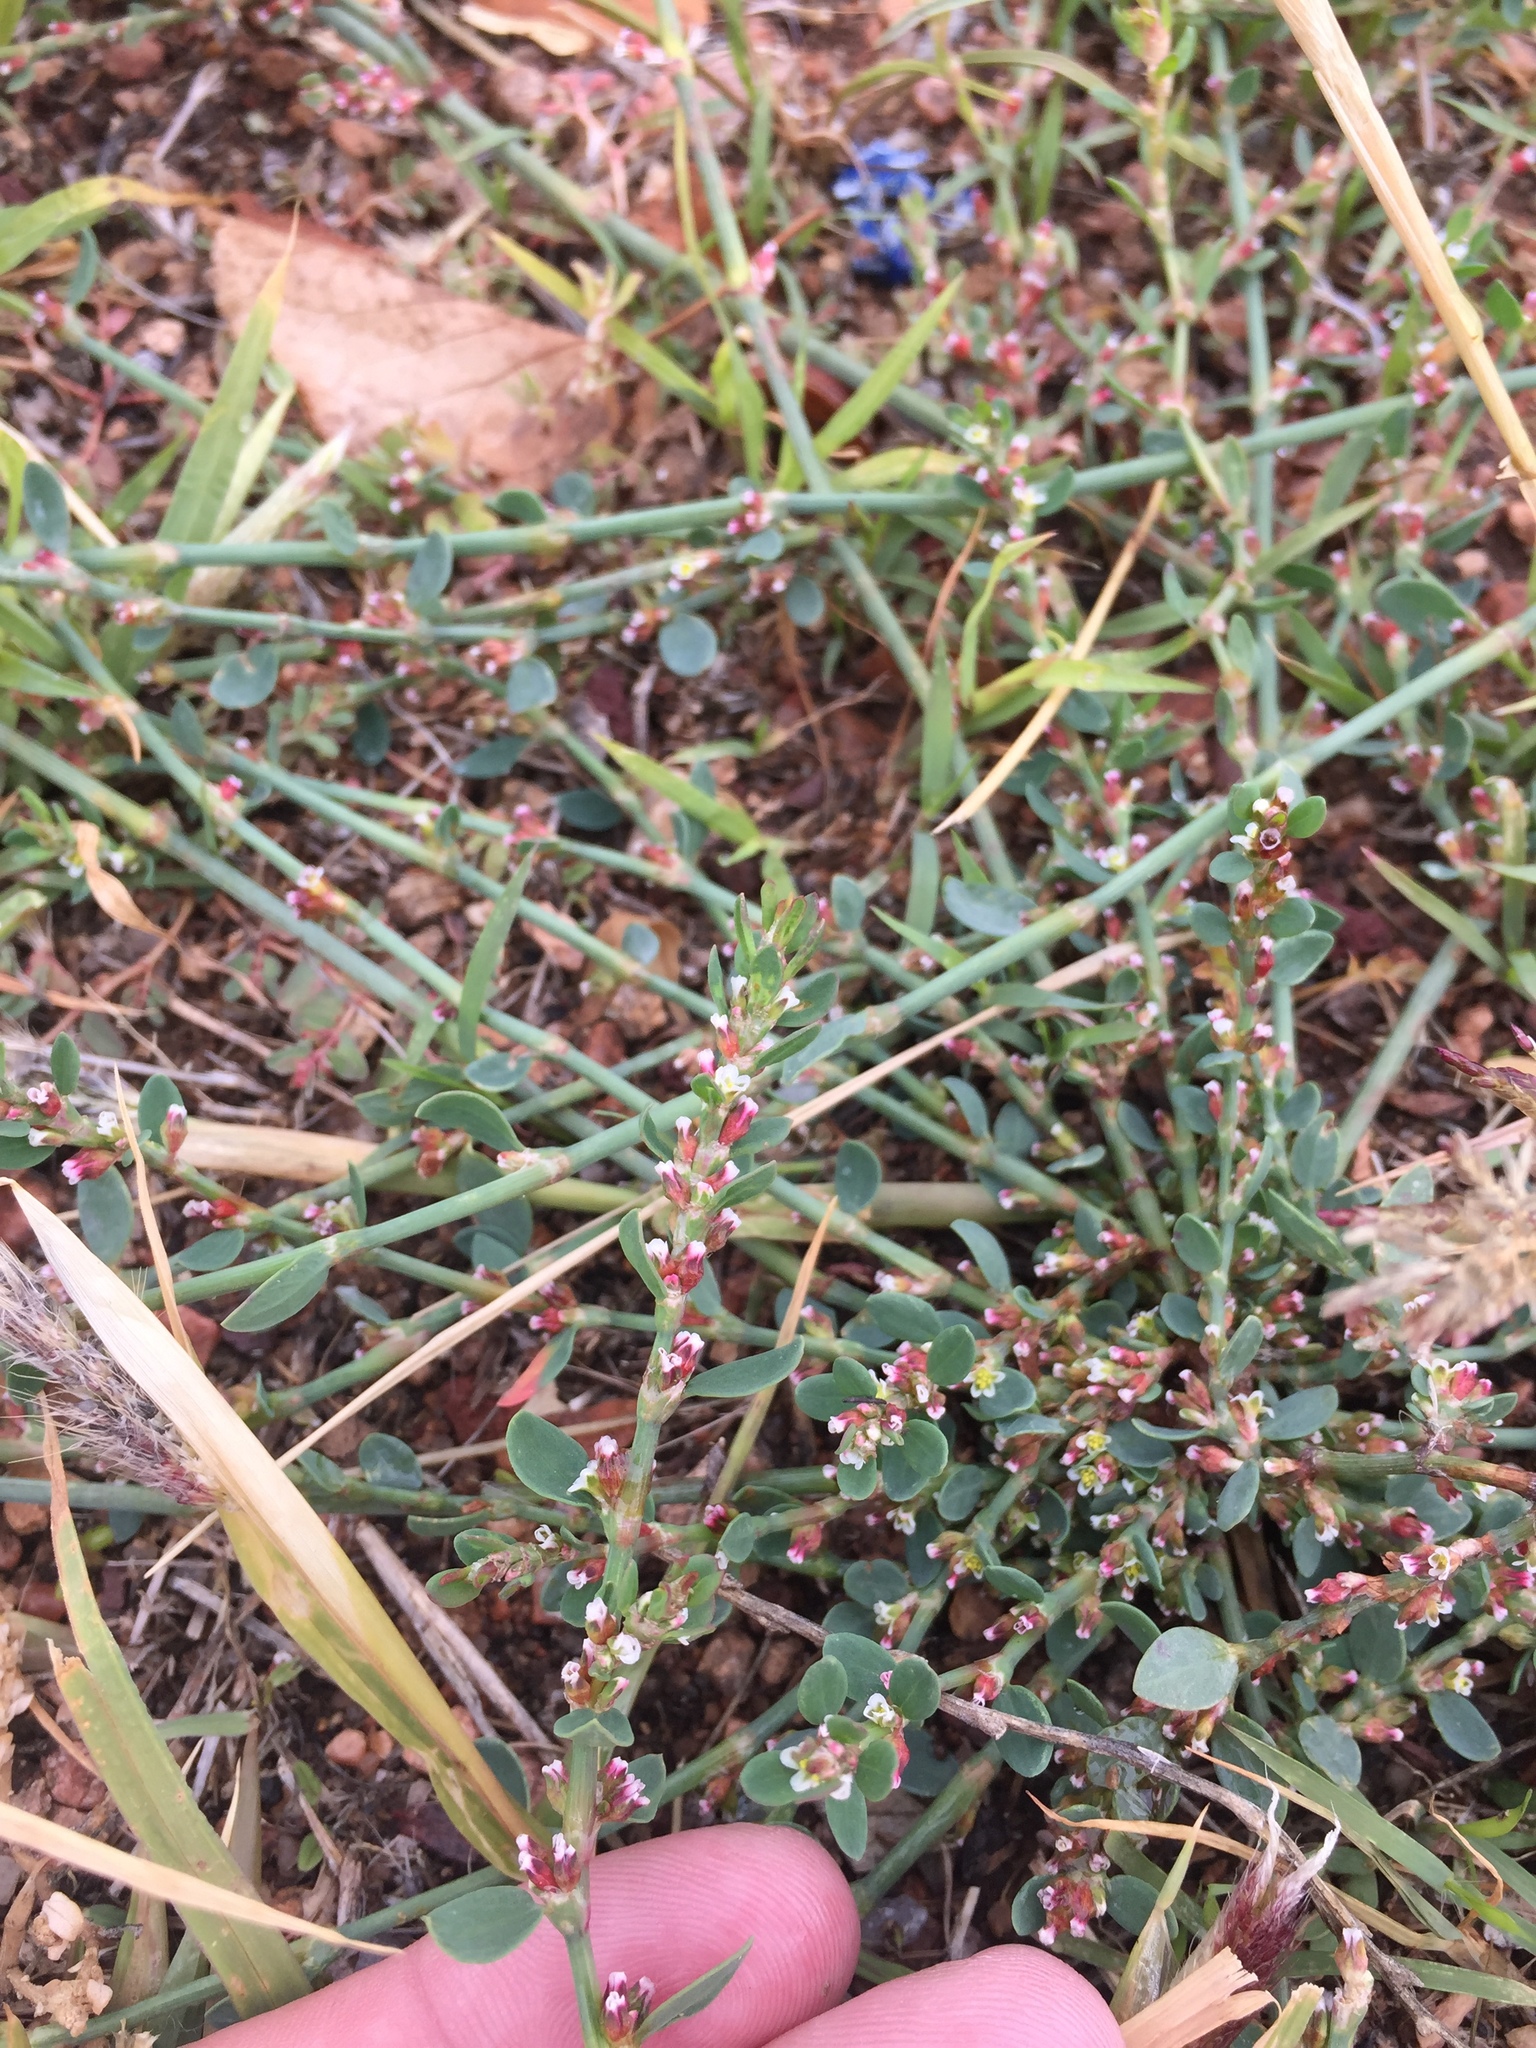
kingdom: Plantae
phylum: Tracheophyta
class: Magnoliopsida
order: Caryophyllales
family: Polygonaceae
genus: Polygonum
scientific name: Polygonum aviculare
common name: Prostrate knotweed
